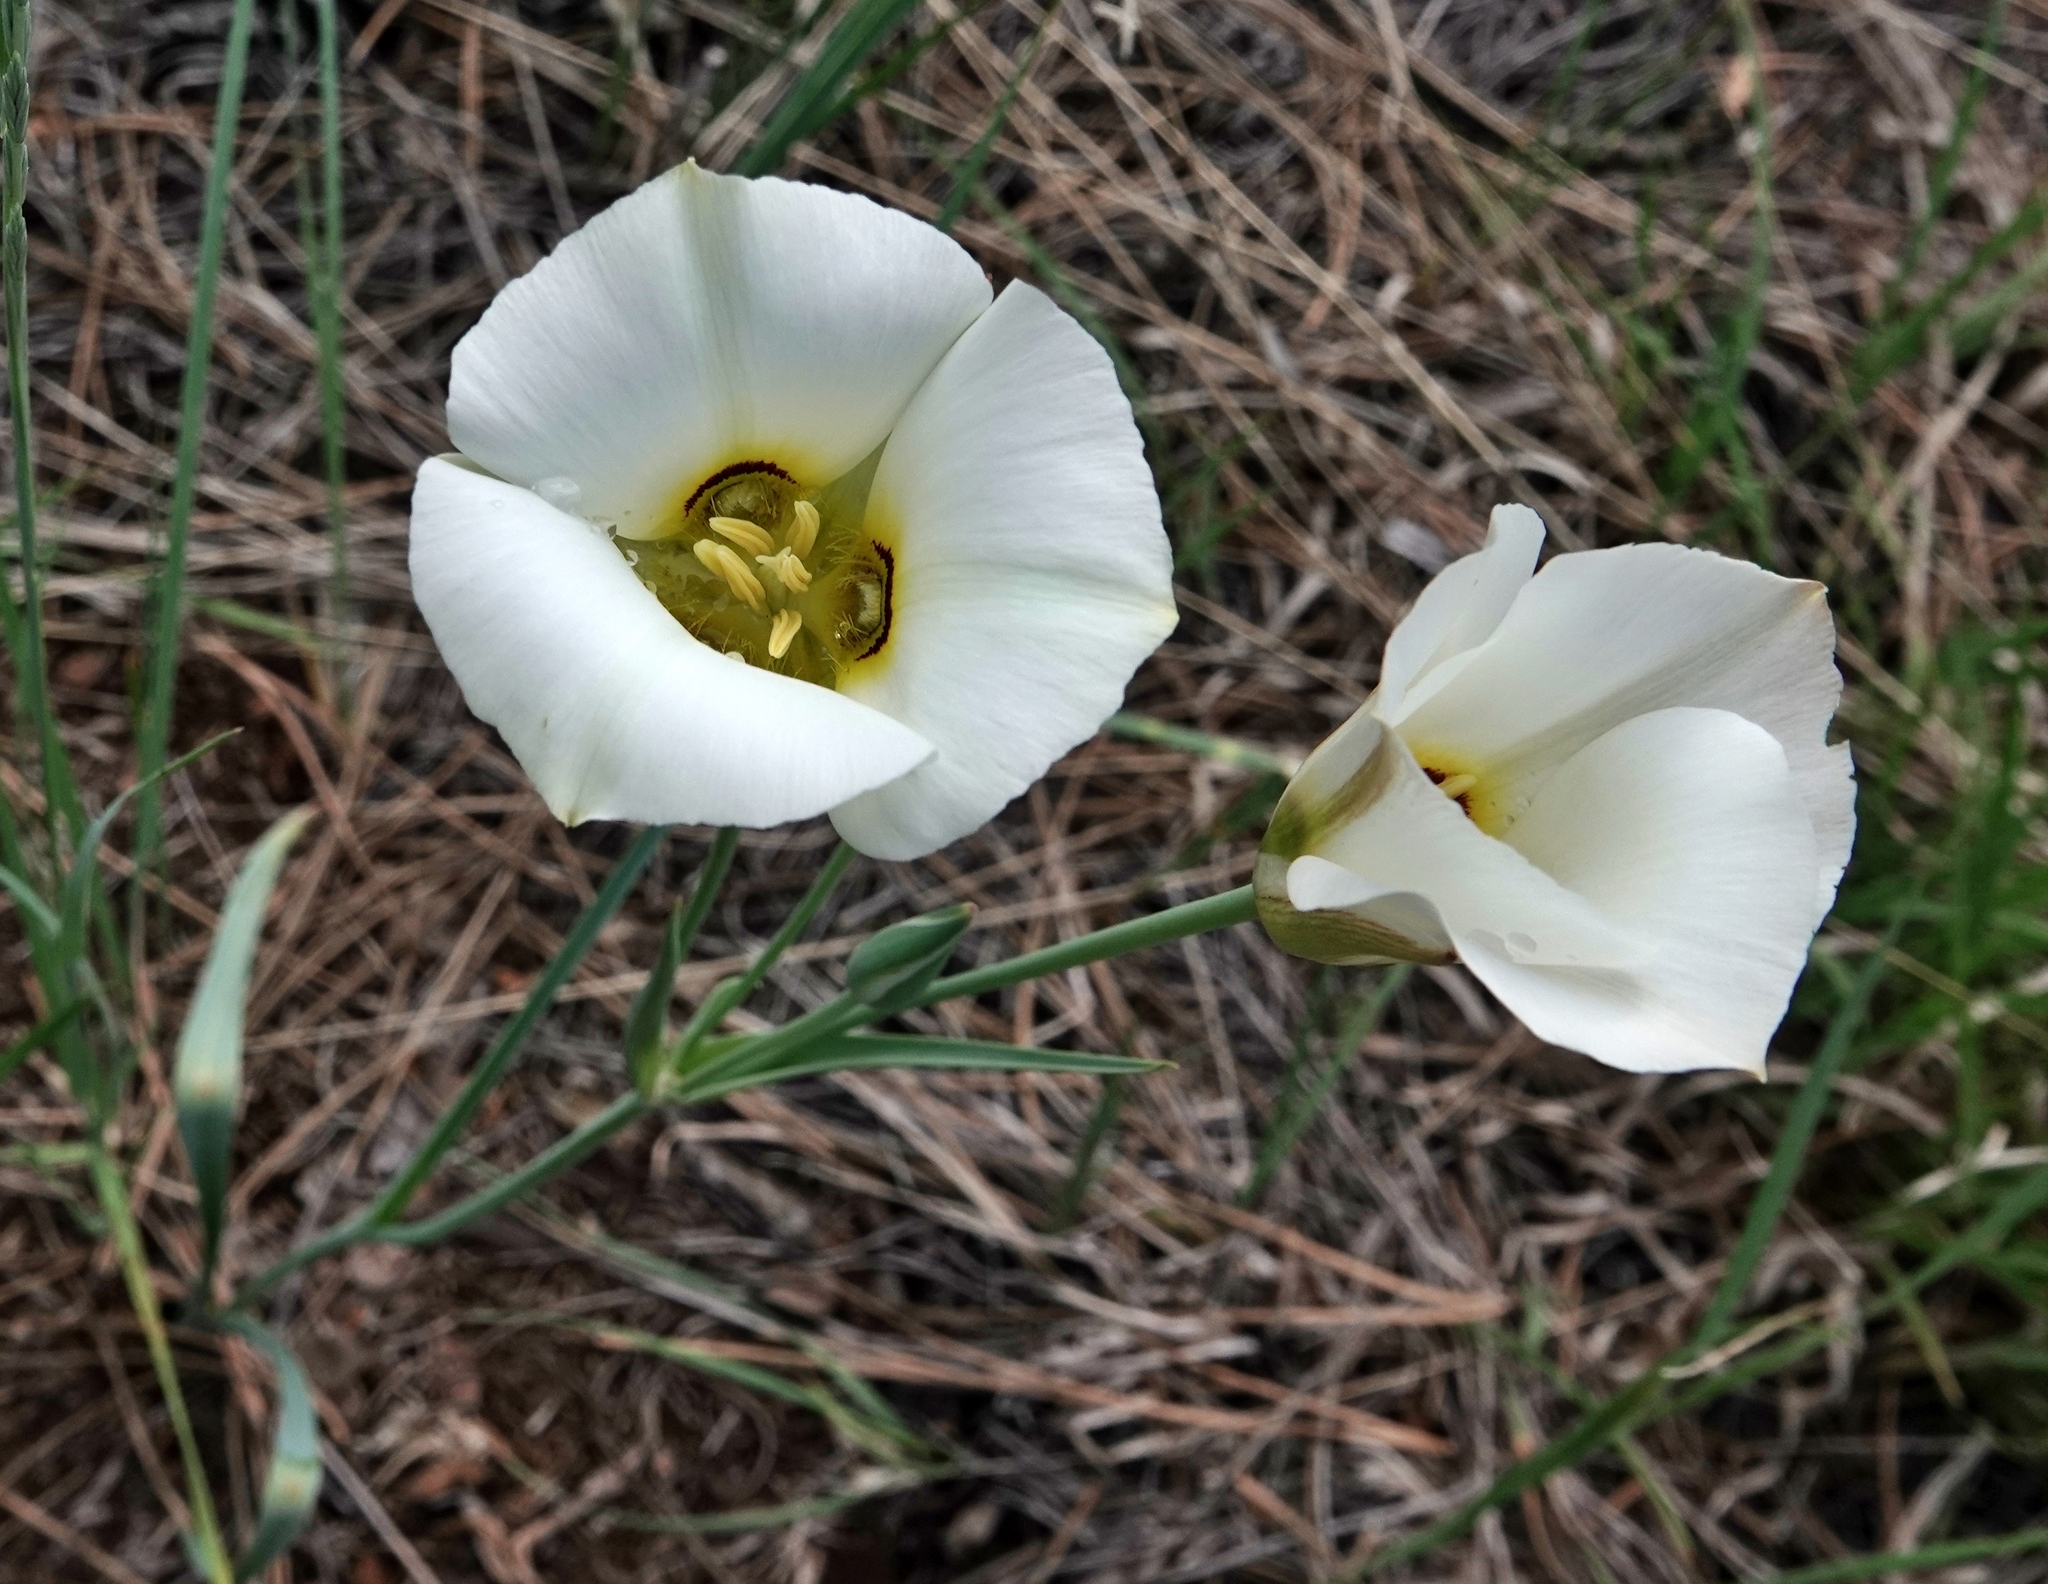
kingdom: Plantae
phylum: Tracheophyta
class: Liliopsida
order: Liliales
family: Liliaceae
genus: Calochortus
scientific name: Calochortus nuttallii
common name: Sego-lily
